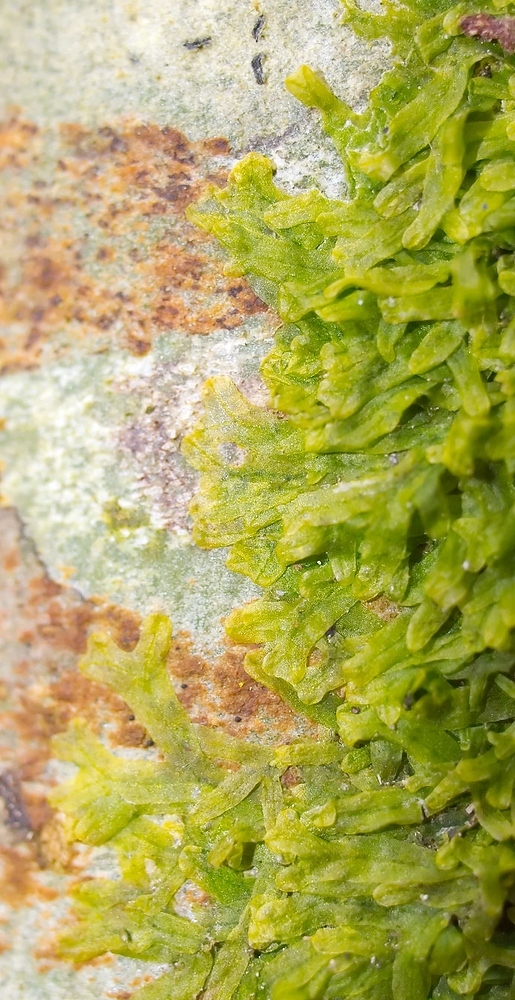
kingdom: Plantae
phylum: Marchantiophyta
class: Jungermanniopsida
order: Metzgeriales
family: Metzgeriaceae
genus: Metzgeria
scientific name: Metzgeria furcata
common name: Forked veilwort
